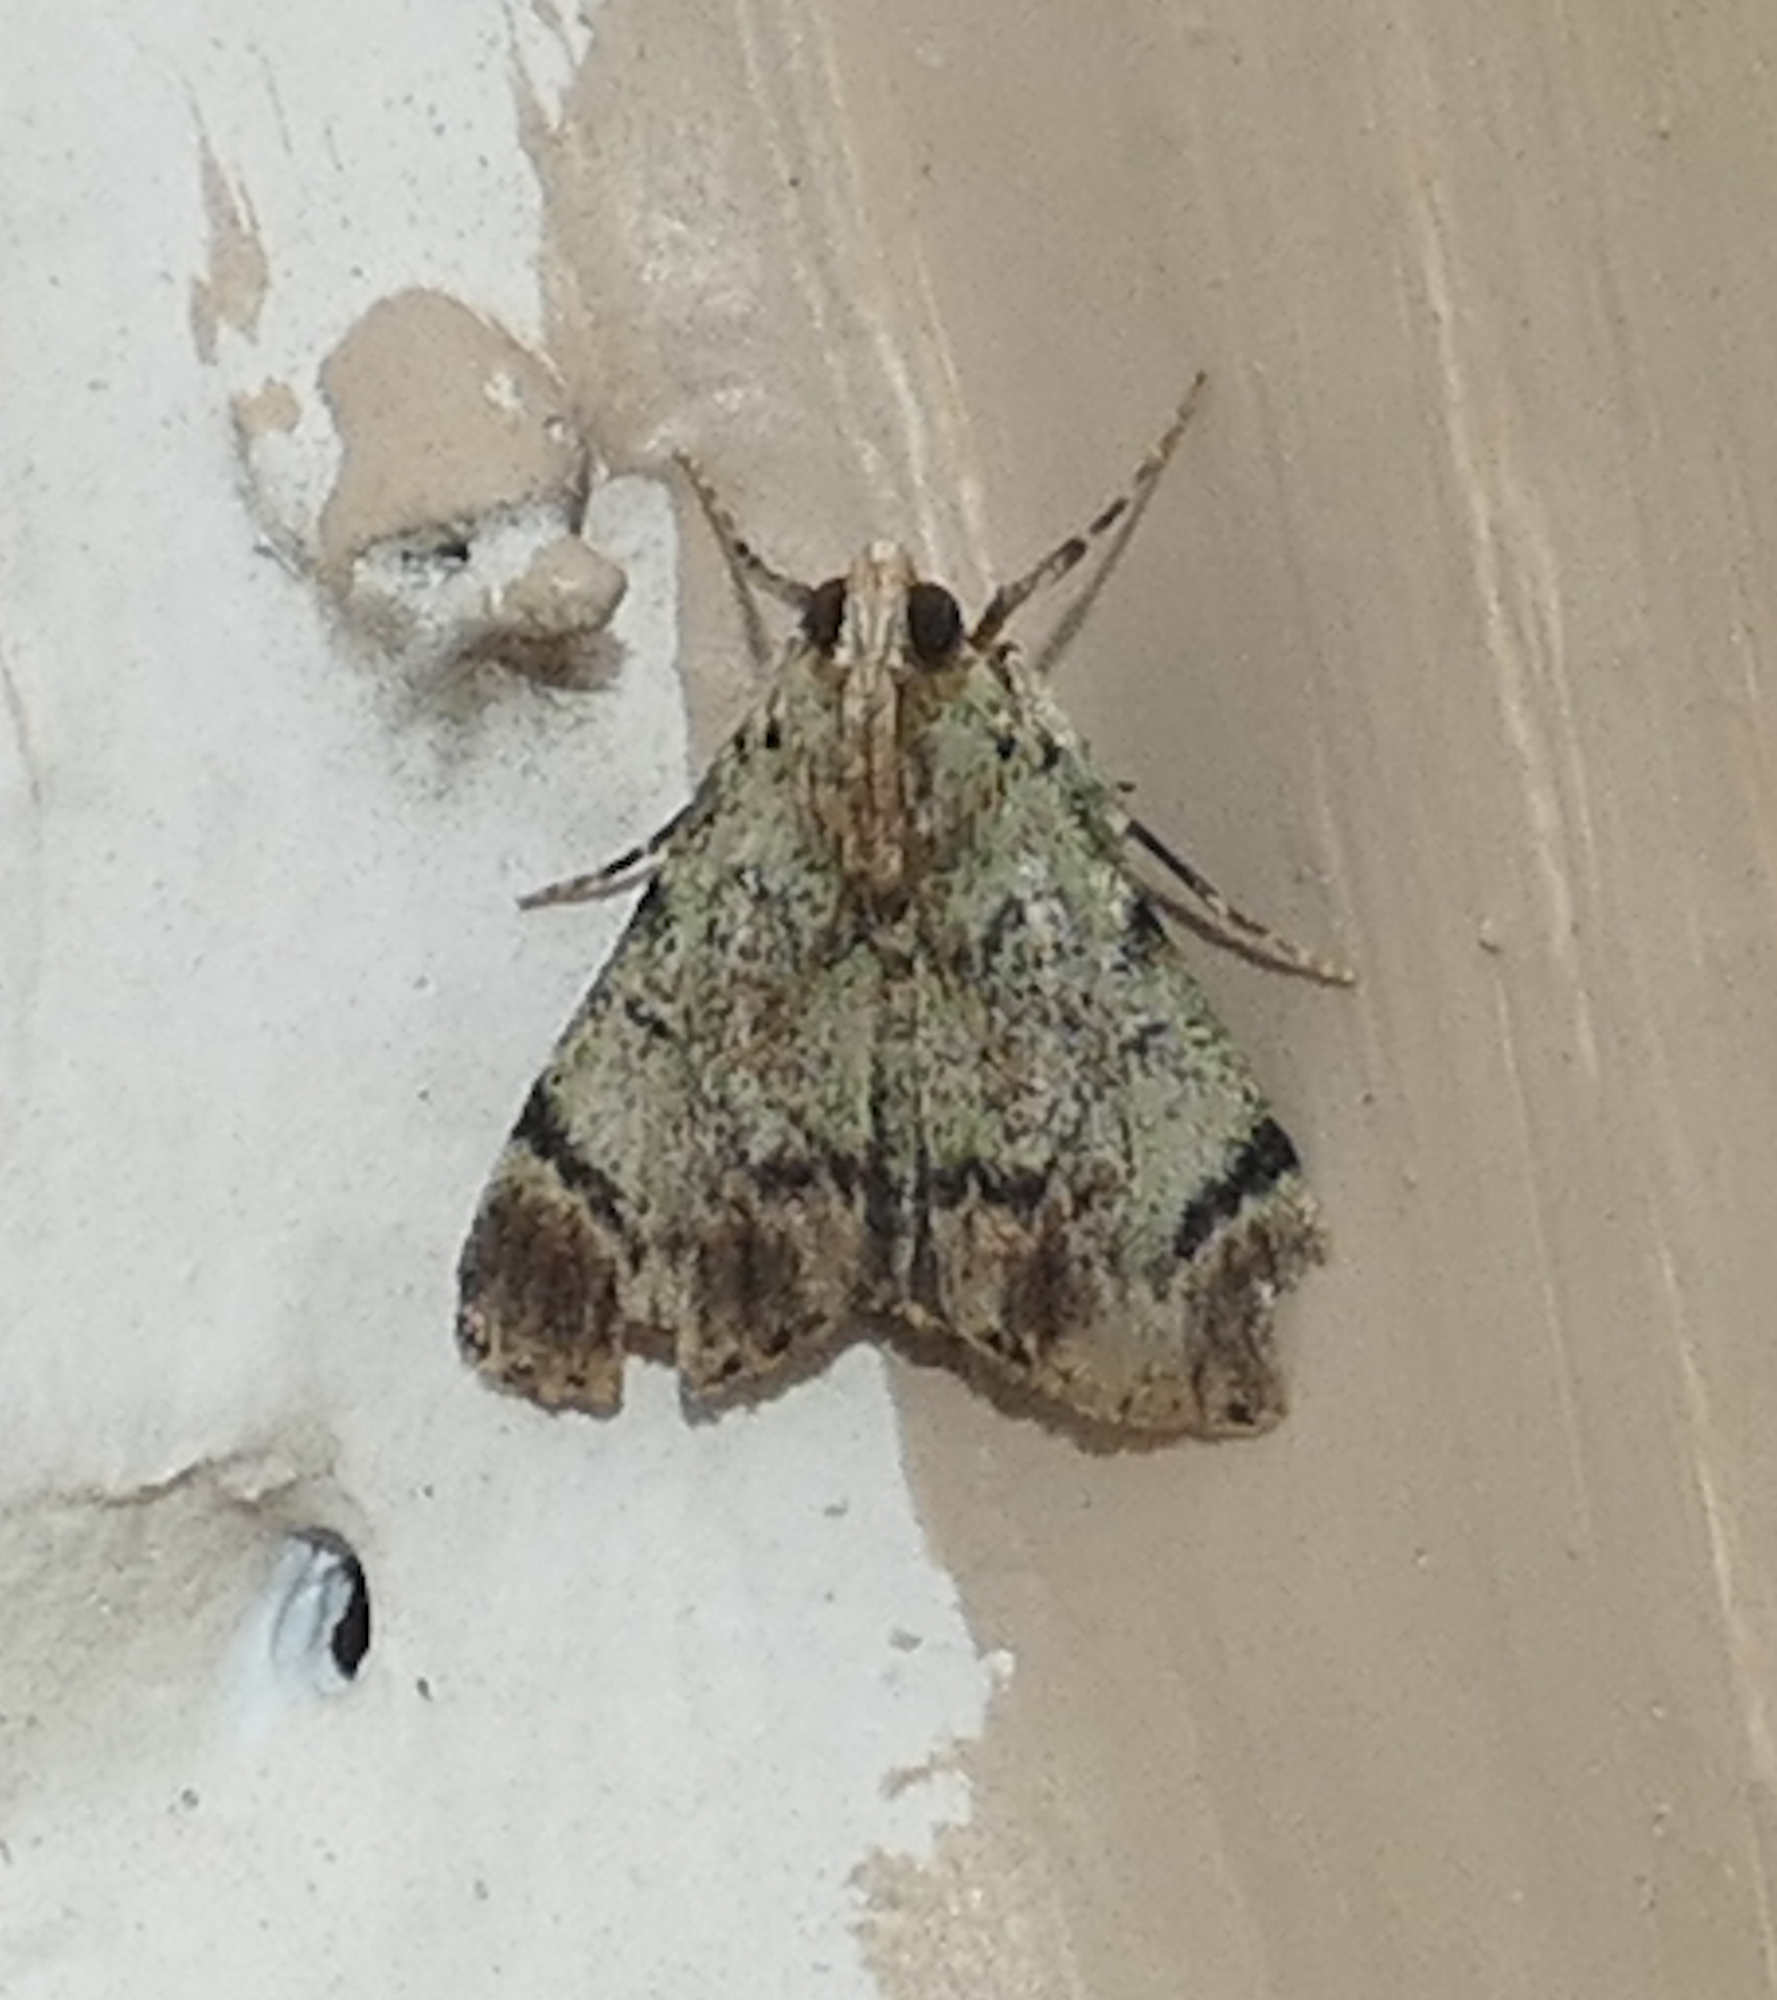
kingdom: Animalia
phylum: Arthropoda
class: Insecta
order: Lepidoptera
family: Pyralidae
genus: Epipaschia
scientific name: Epipaschia superatalis
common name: Dimorphic macalla moth
